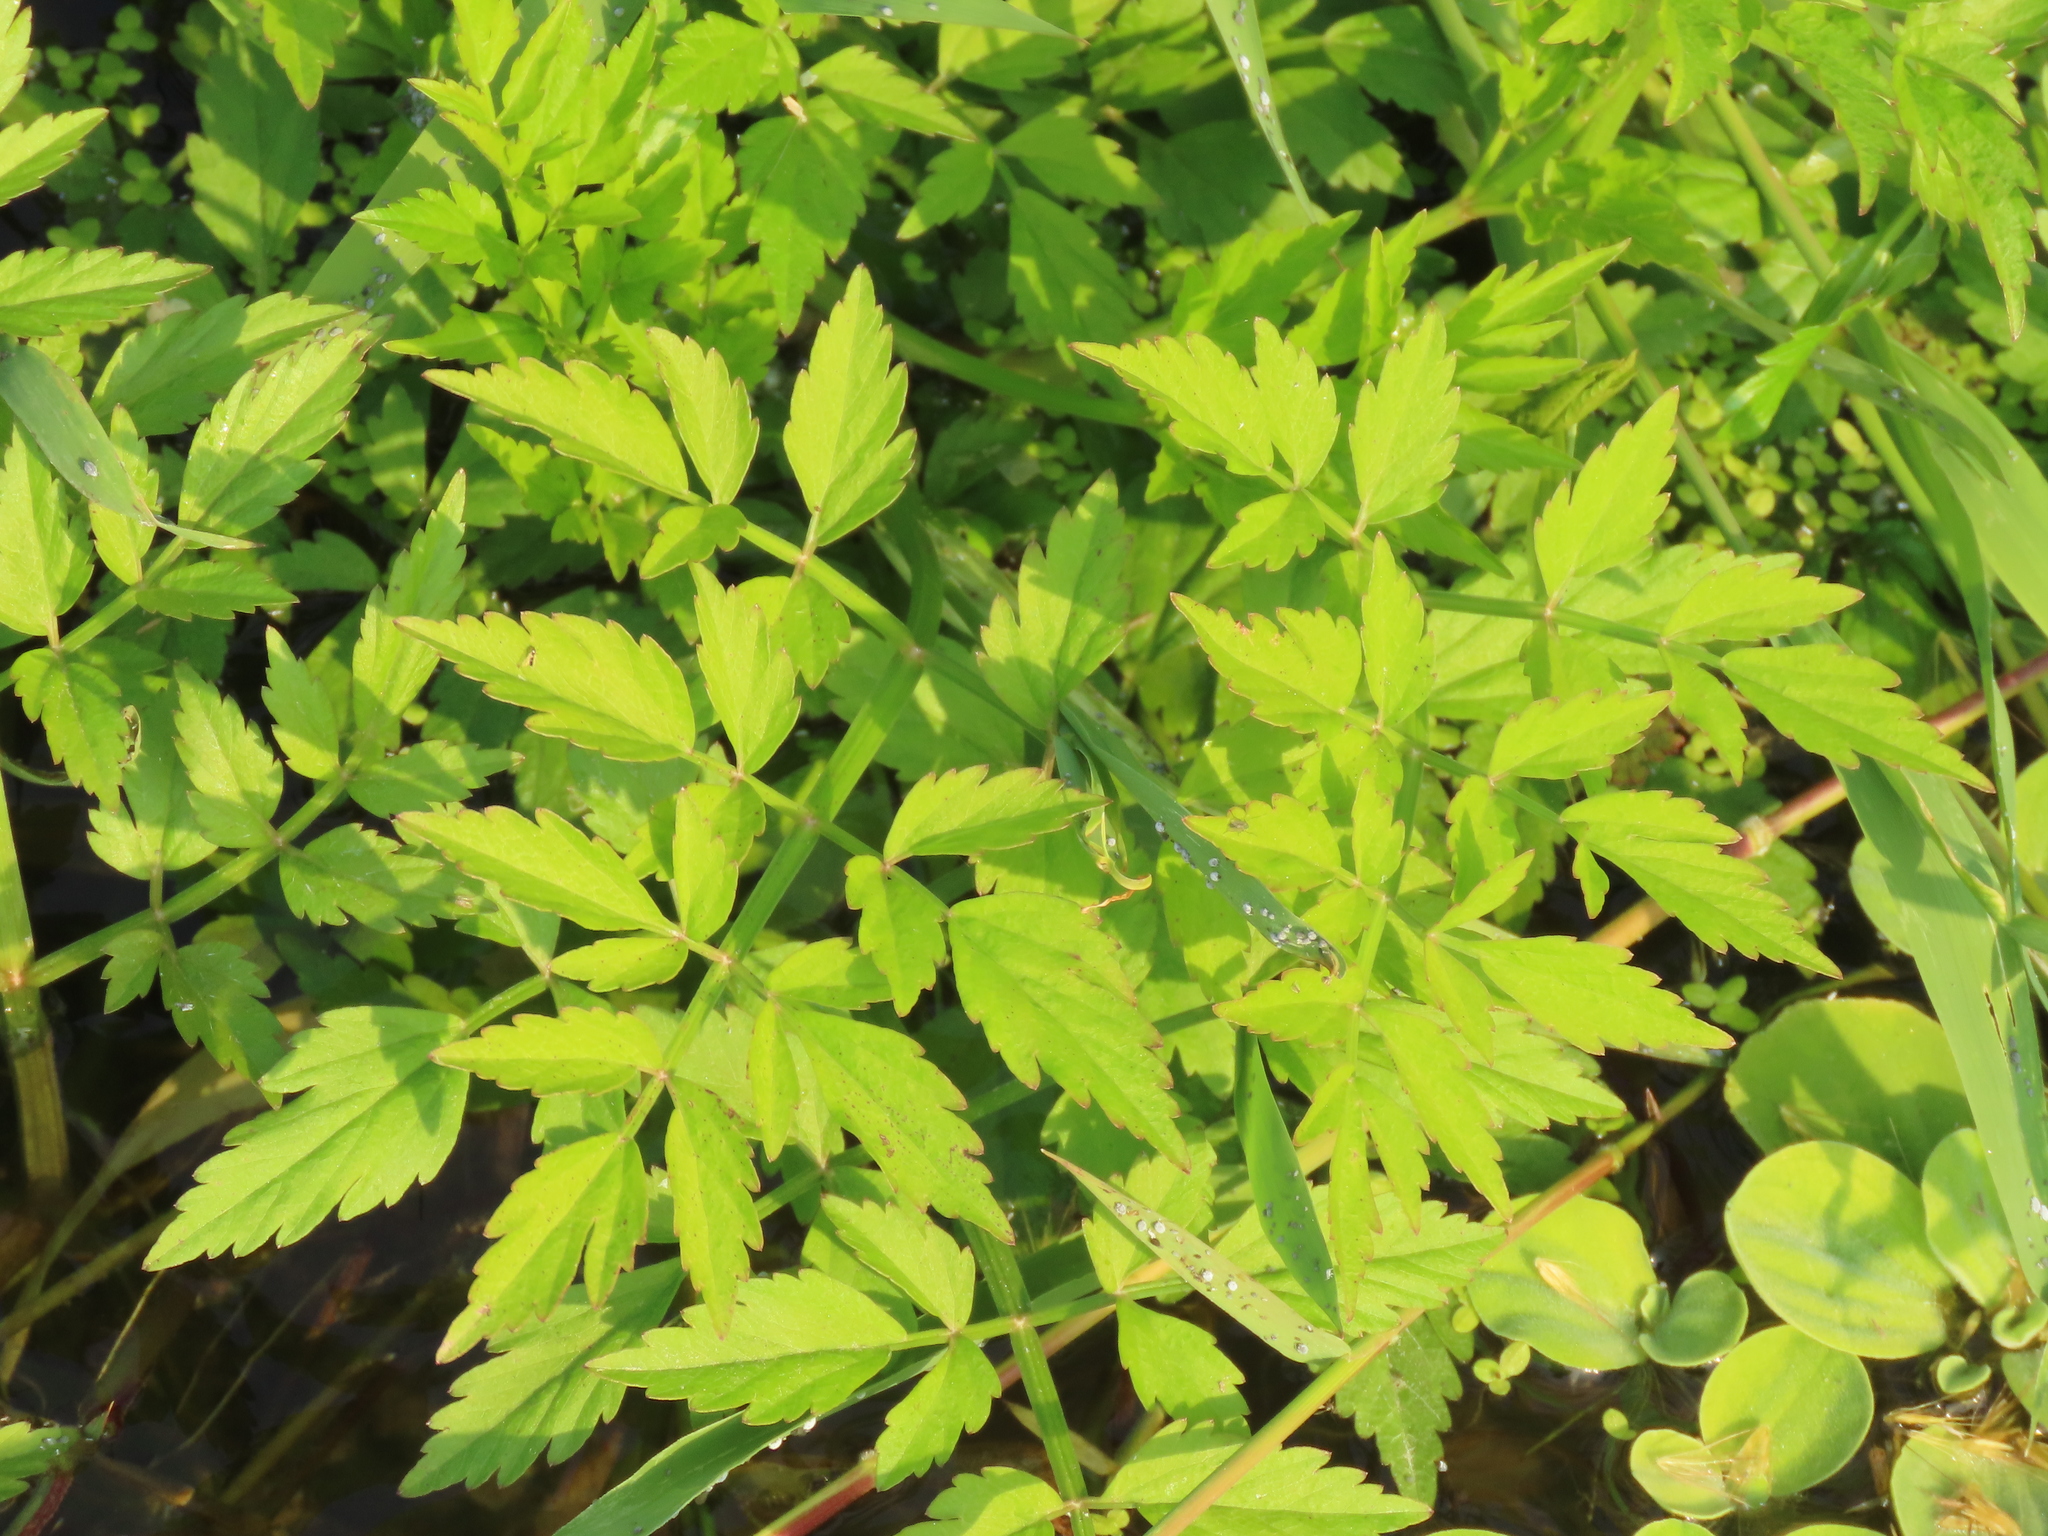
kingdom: Plantae
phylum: Tracheophyta
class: Magnoliopsida
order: Apiales
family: Apiaceae
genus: Oenanthe
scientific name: Oenanthe javanica
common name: Java water-dropwort
